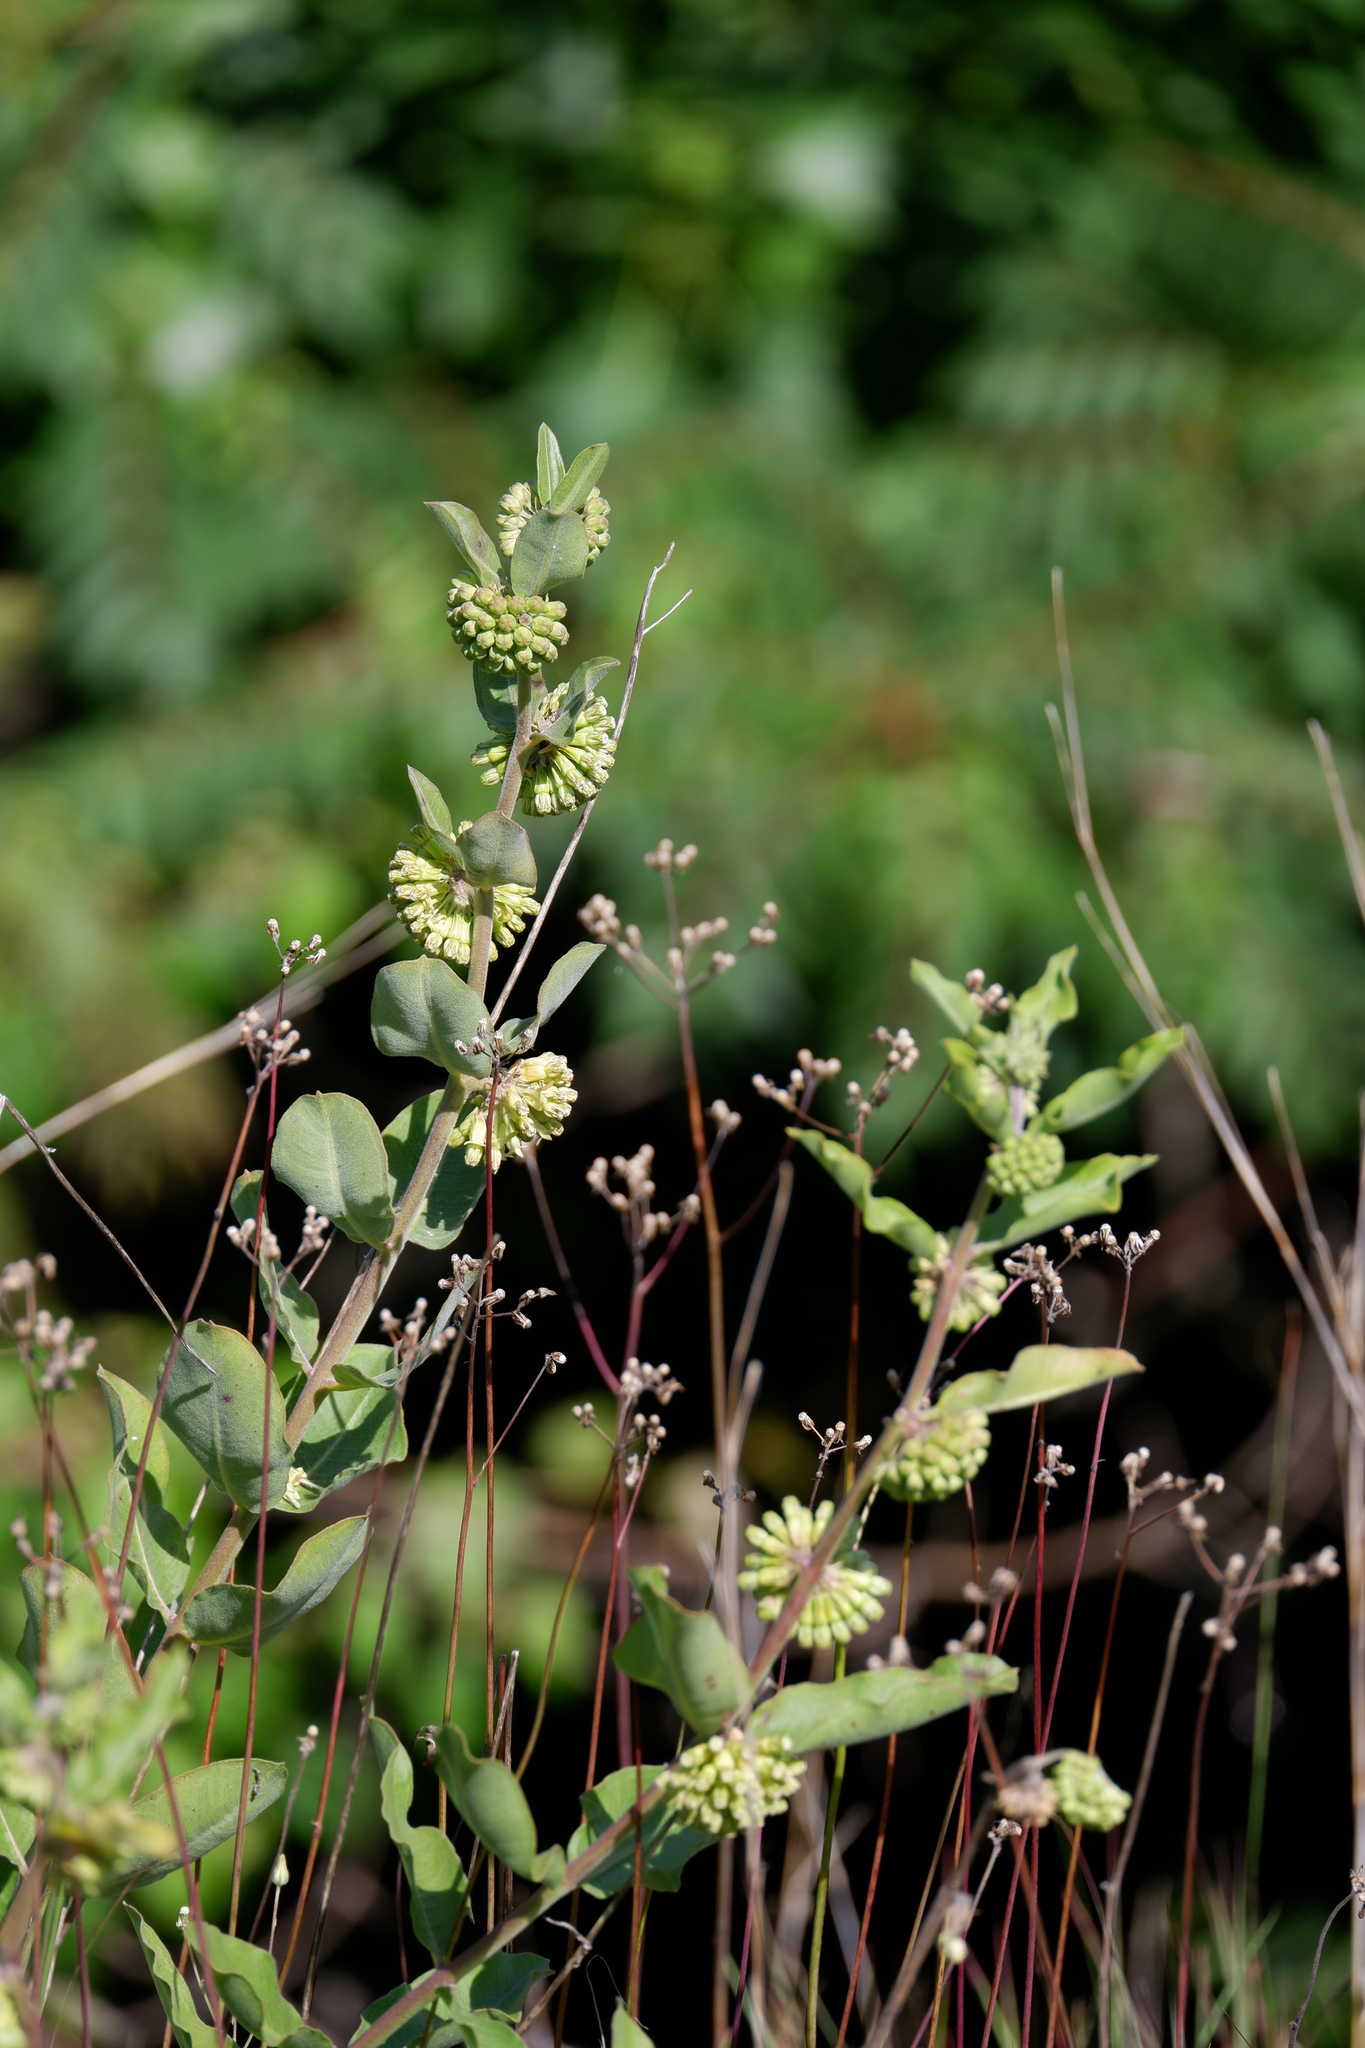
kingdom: Plantae
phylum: Tracheophyta
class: Magnoliopsida
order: Gentianales
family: Apocynaceae
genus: Asclepias
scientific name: Asclepias viridiflora
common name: Green comet milkweed
